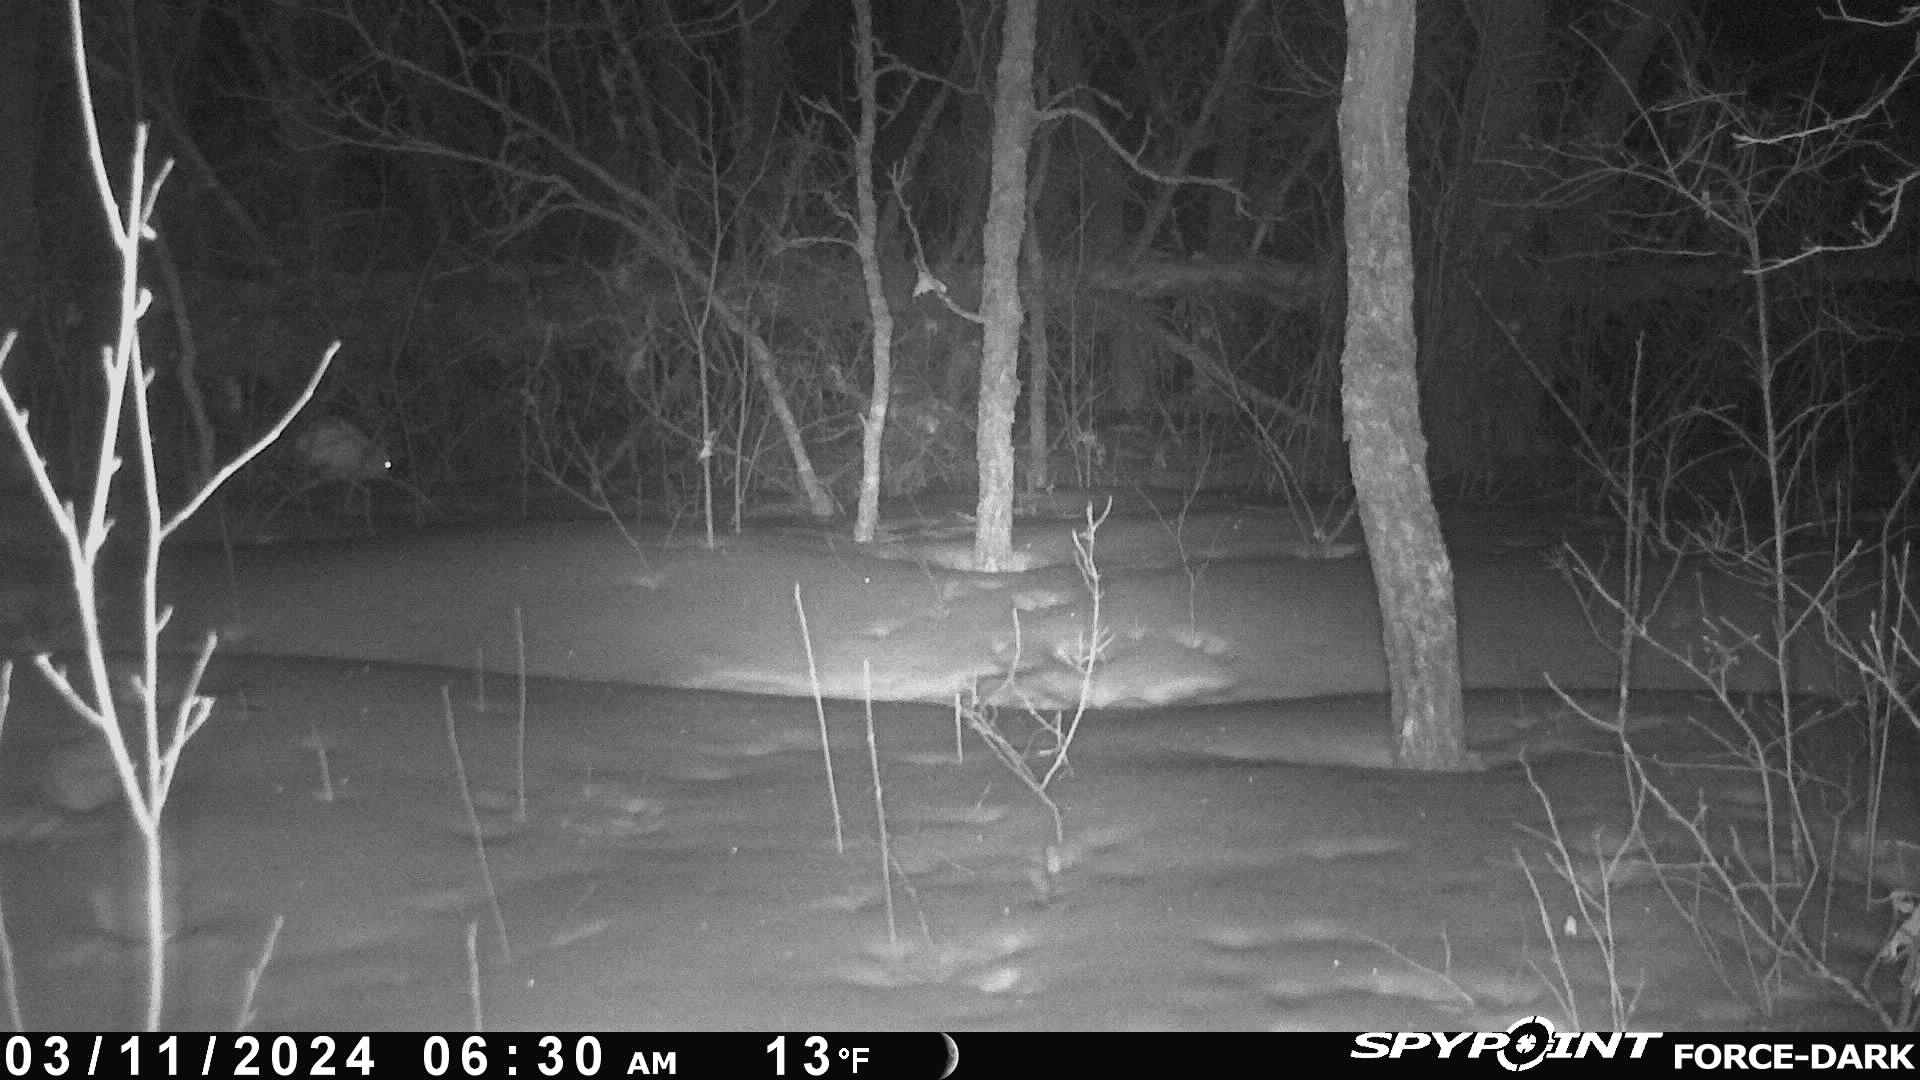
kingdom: Animalia
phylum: Chordata
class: Mammalia
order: Lagomorpha
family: Leporidae
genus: Lepus
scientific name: Lepus americanus
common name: Snowshoe hare
